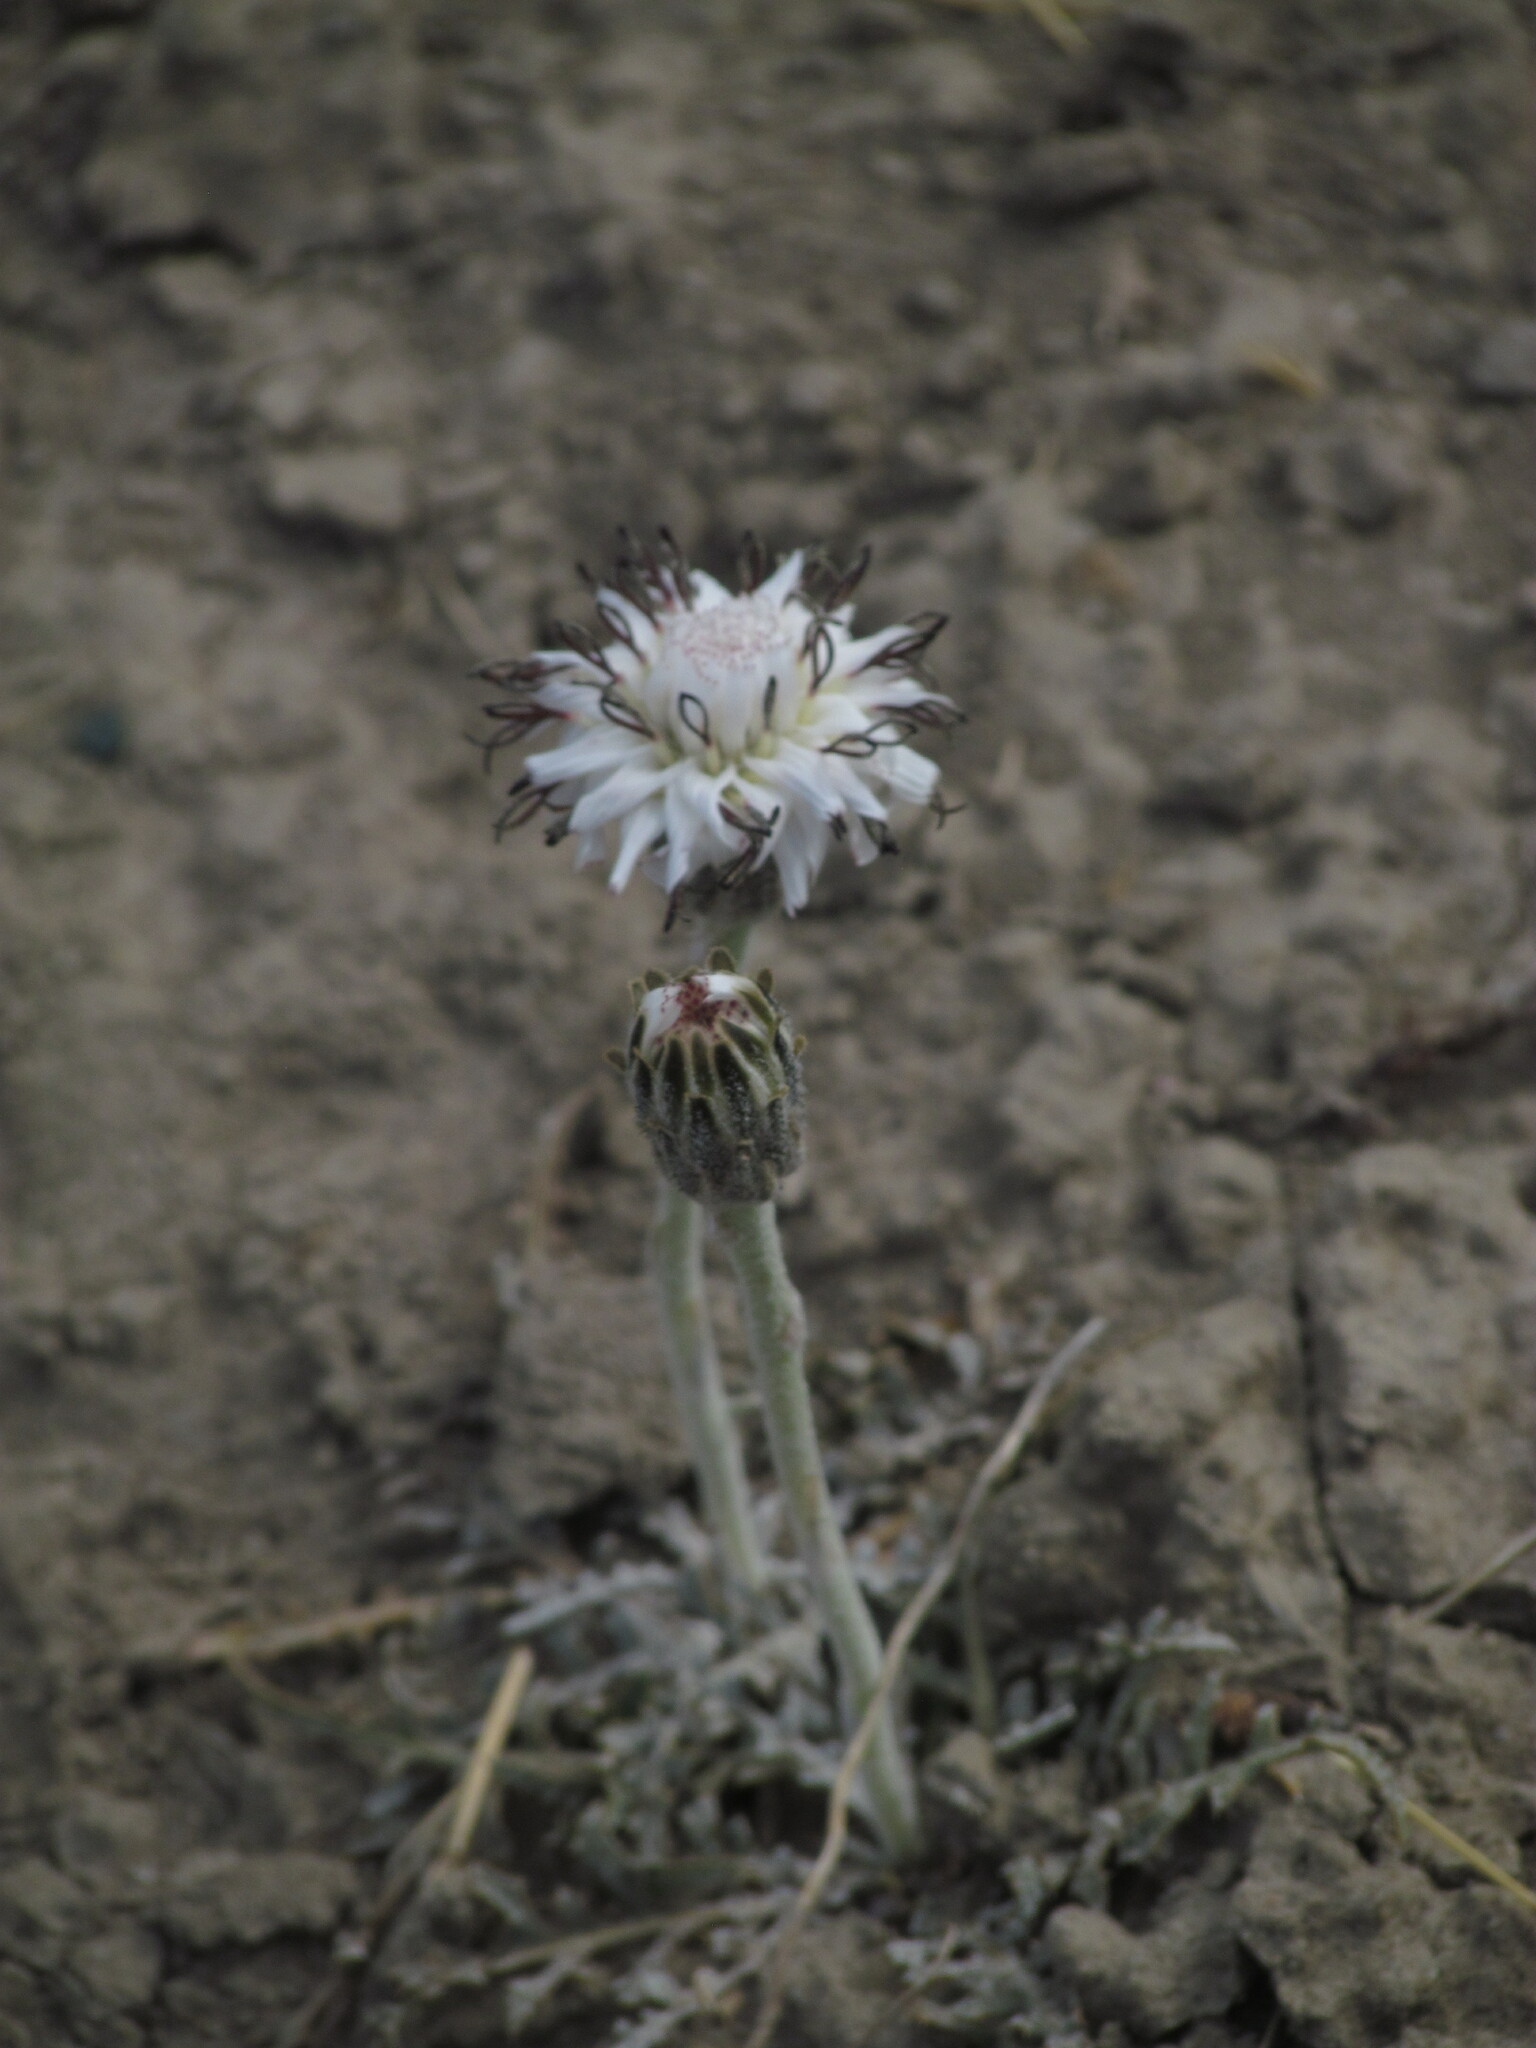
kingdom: Plantae
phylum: Tracheophyta
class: Magnoliopsida
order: Asterales
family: Asteraceae
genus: Hypochaeris
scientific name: Hypochaeris incana
